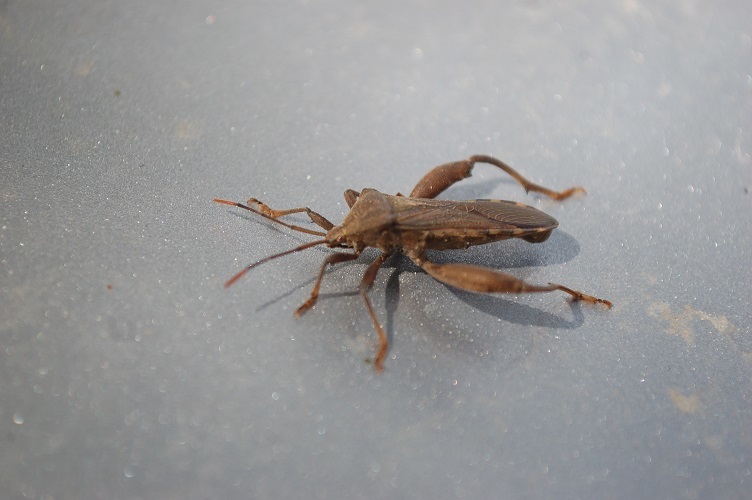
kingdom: Animalia
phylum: Arthropoda
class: Insecta
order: Hemiptera
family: Coreidae
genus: Piezogaster
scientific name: Piezogaster basilicus
